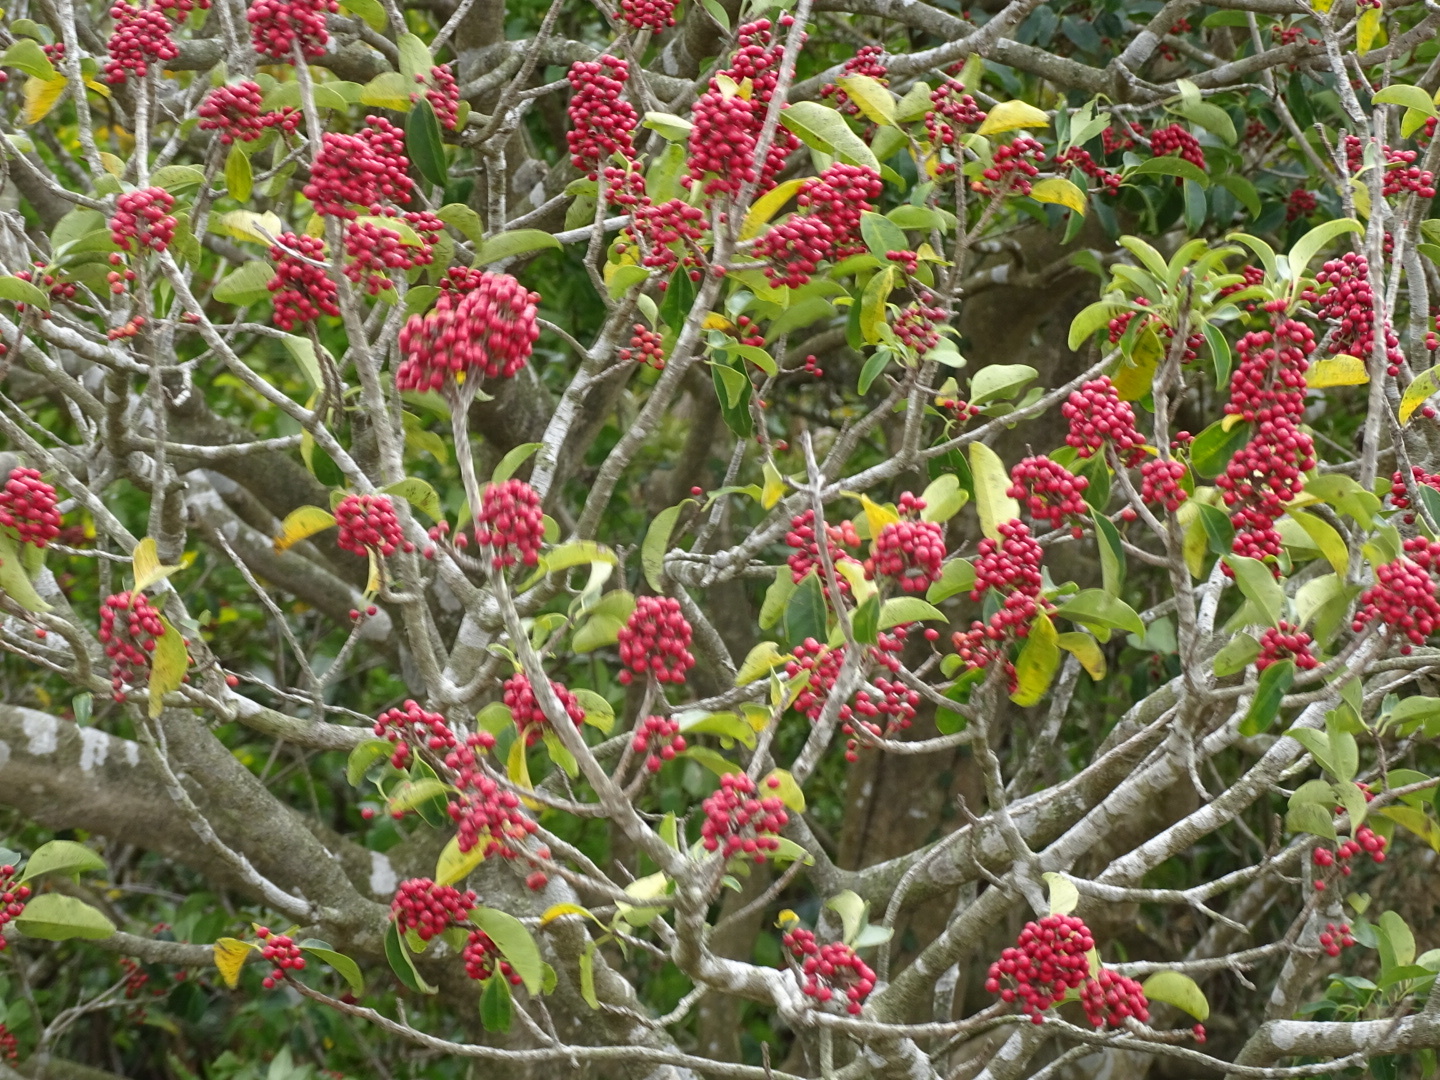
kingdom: Plantae
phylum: Tracheophyta
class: Magnoliopsida
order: Aquifoliales
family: Aquifoliaceae
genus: Ilex
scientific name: Ilex rotunda
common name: Kurogane holly
